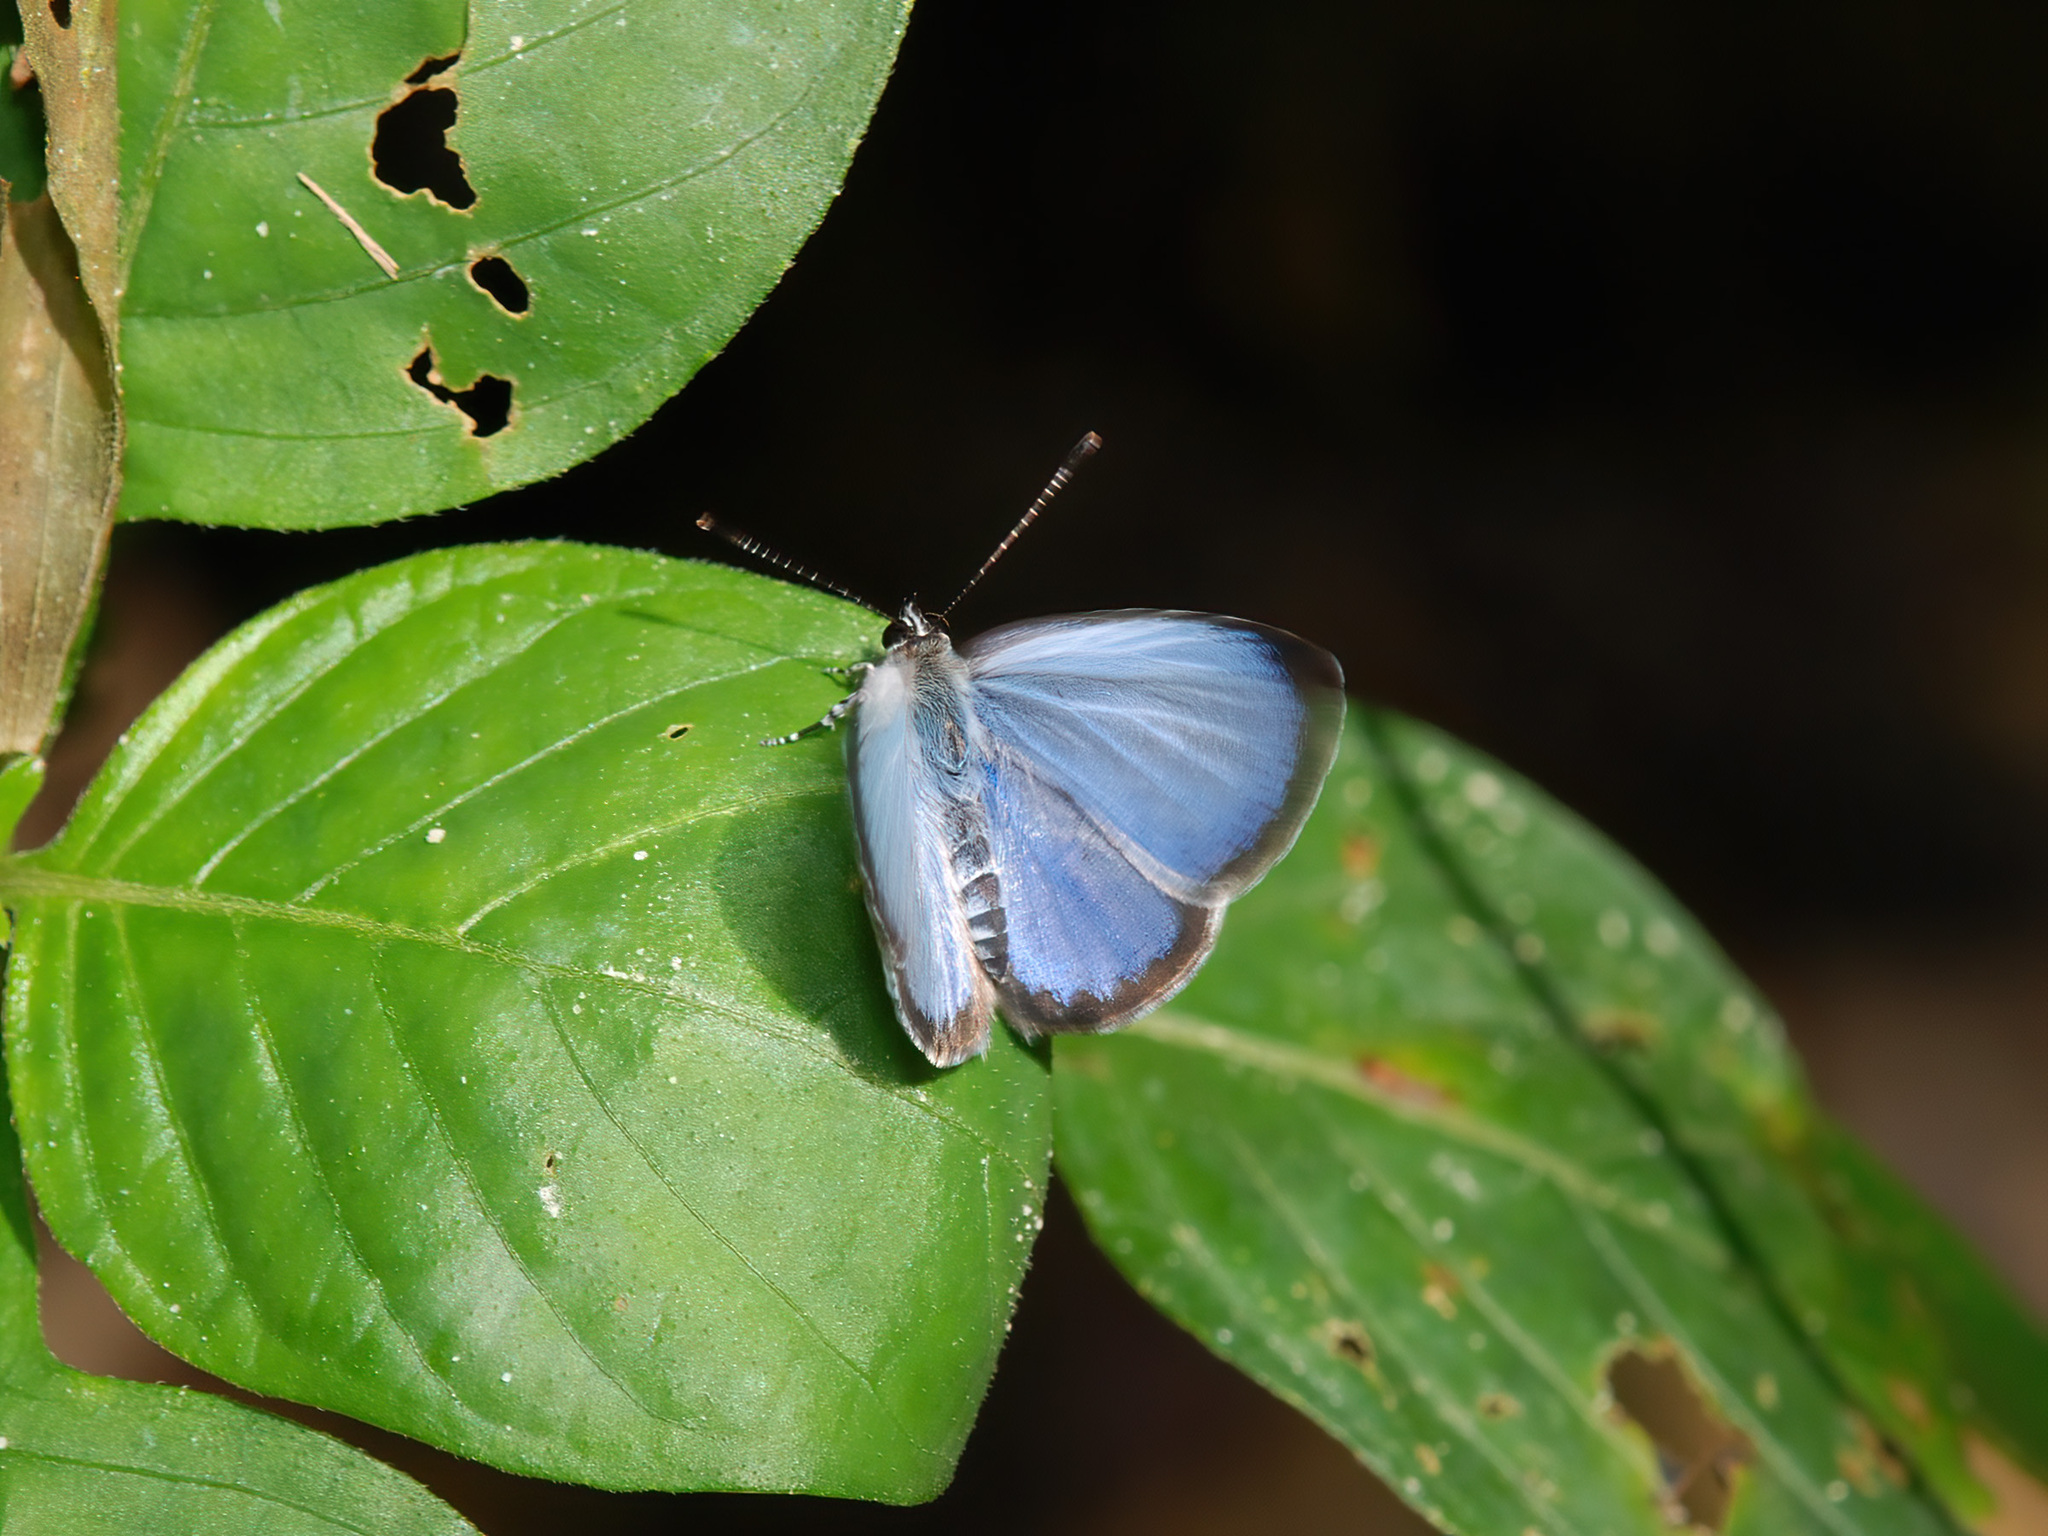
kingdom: Animalia
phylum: Arthropoda
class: Insecta
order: Lepidoptera
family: Lycaenidae
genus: Acytolepis
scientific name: Acytolepis puspa
